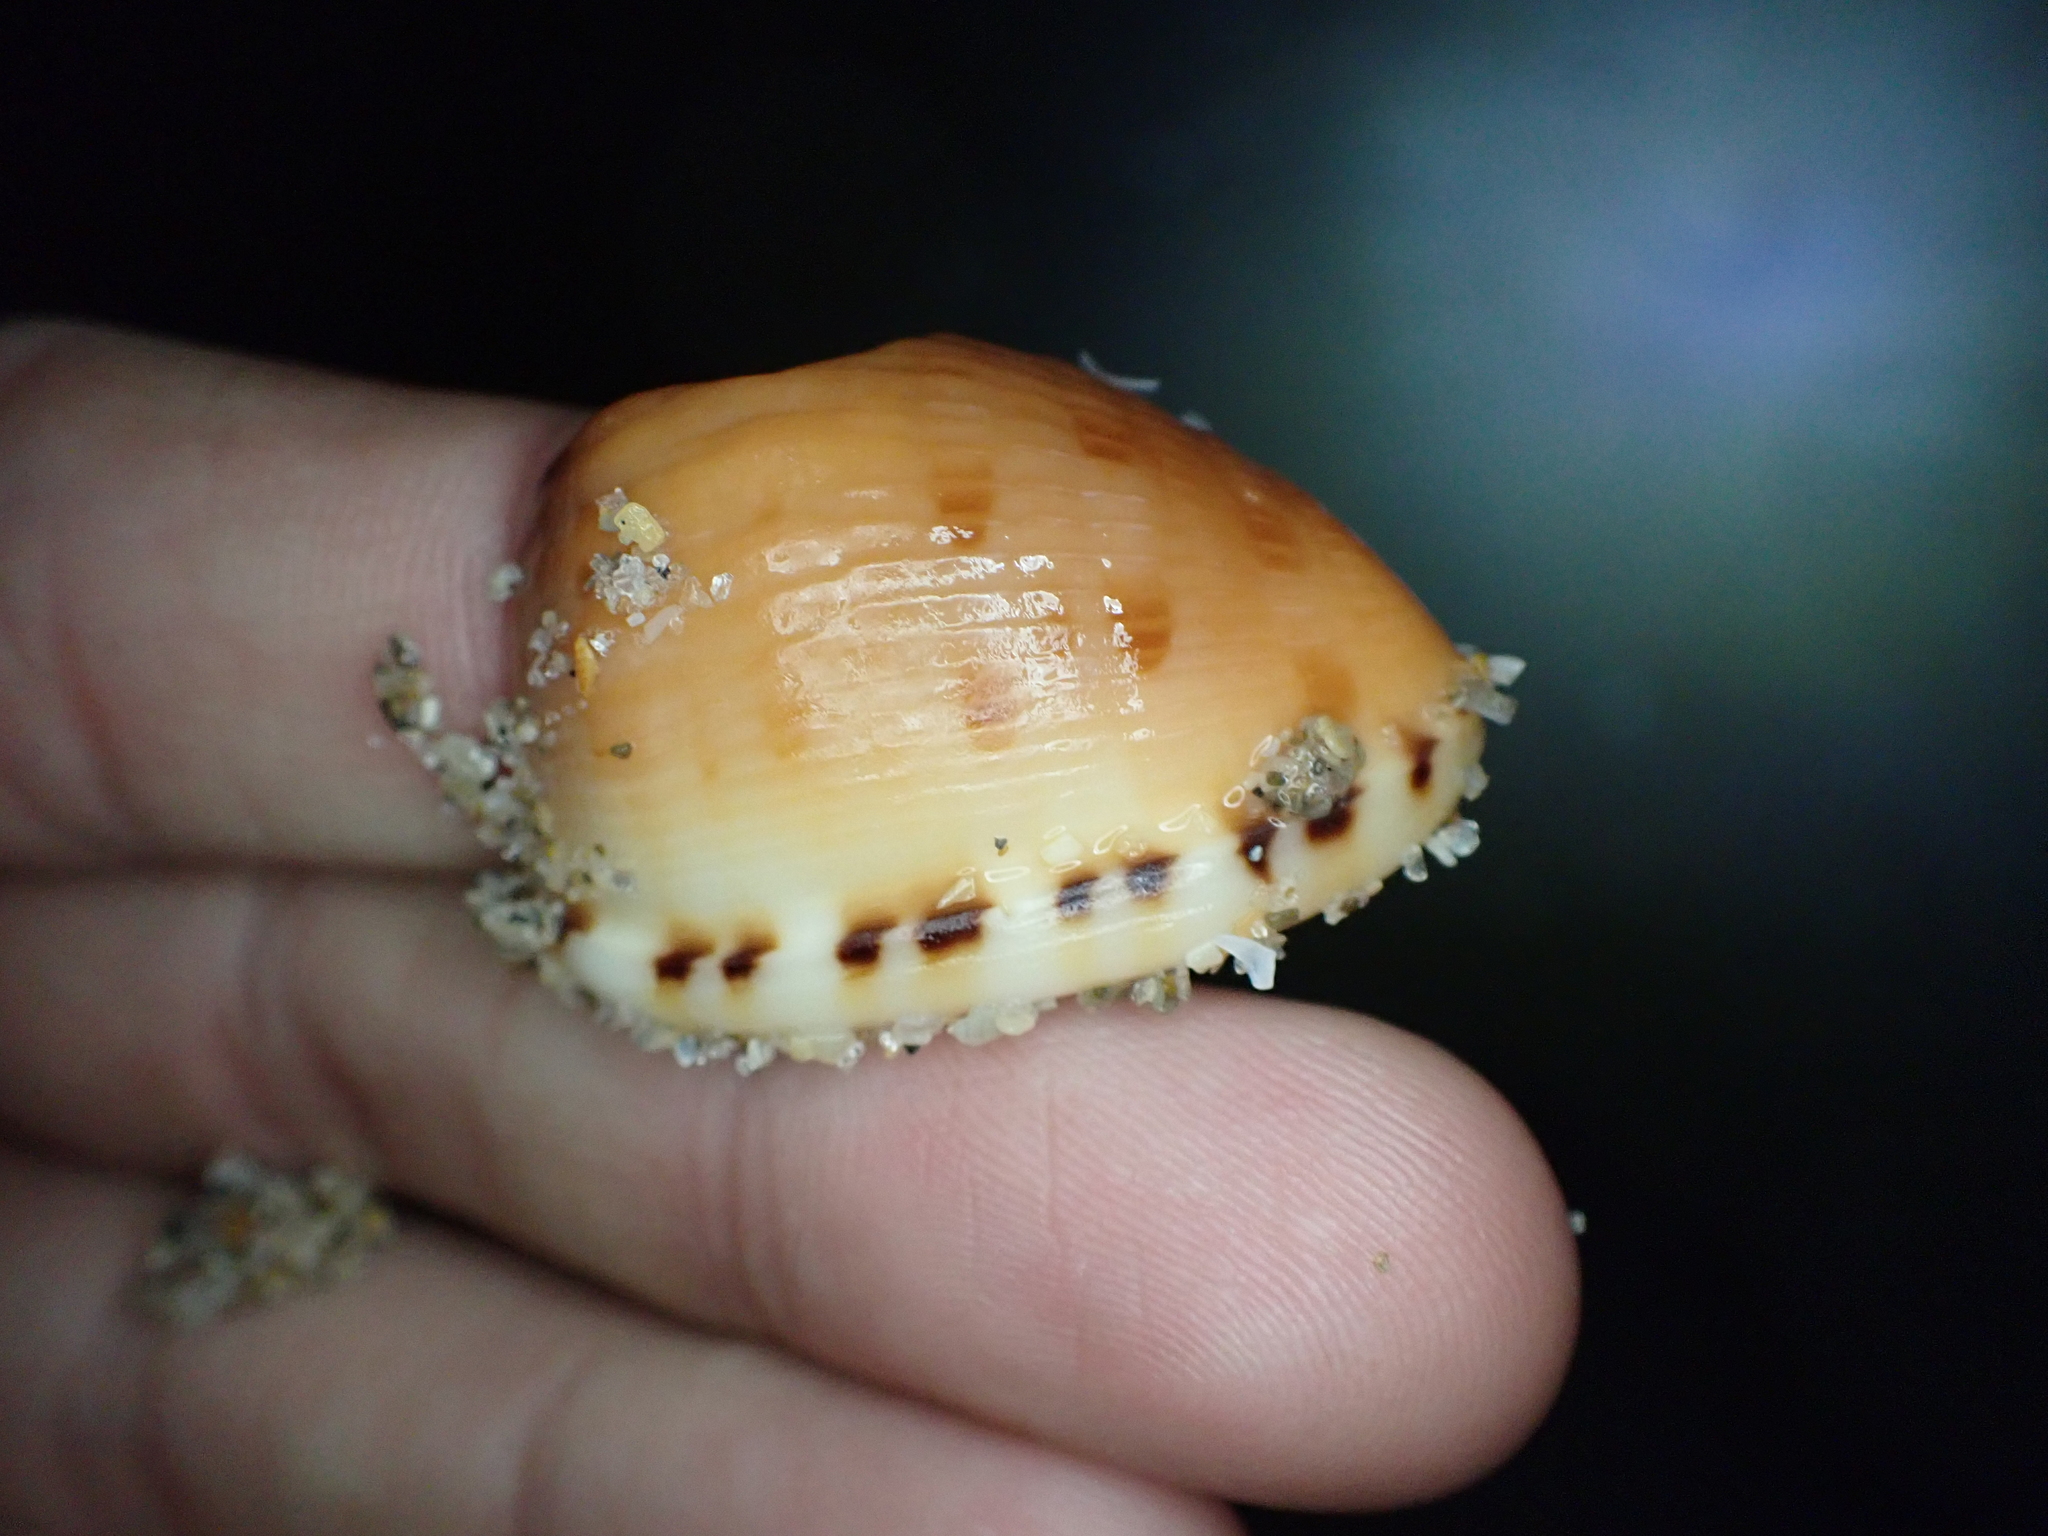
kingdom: Animalia
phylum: Mollusca
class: Gastropoda
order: Littorinimorpha
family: Cassidae
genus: Cypraecassis
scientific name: Cypraecassis testiculus
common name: Reticulate cowrie-helmet
